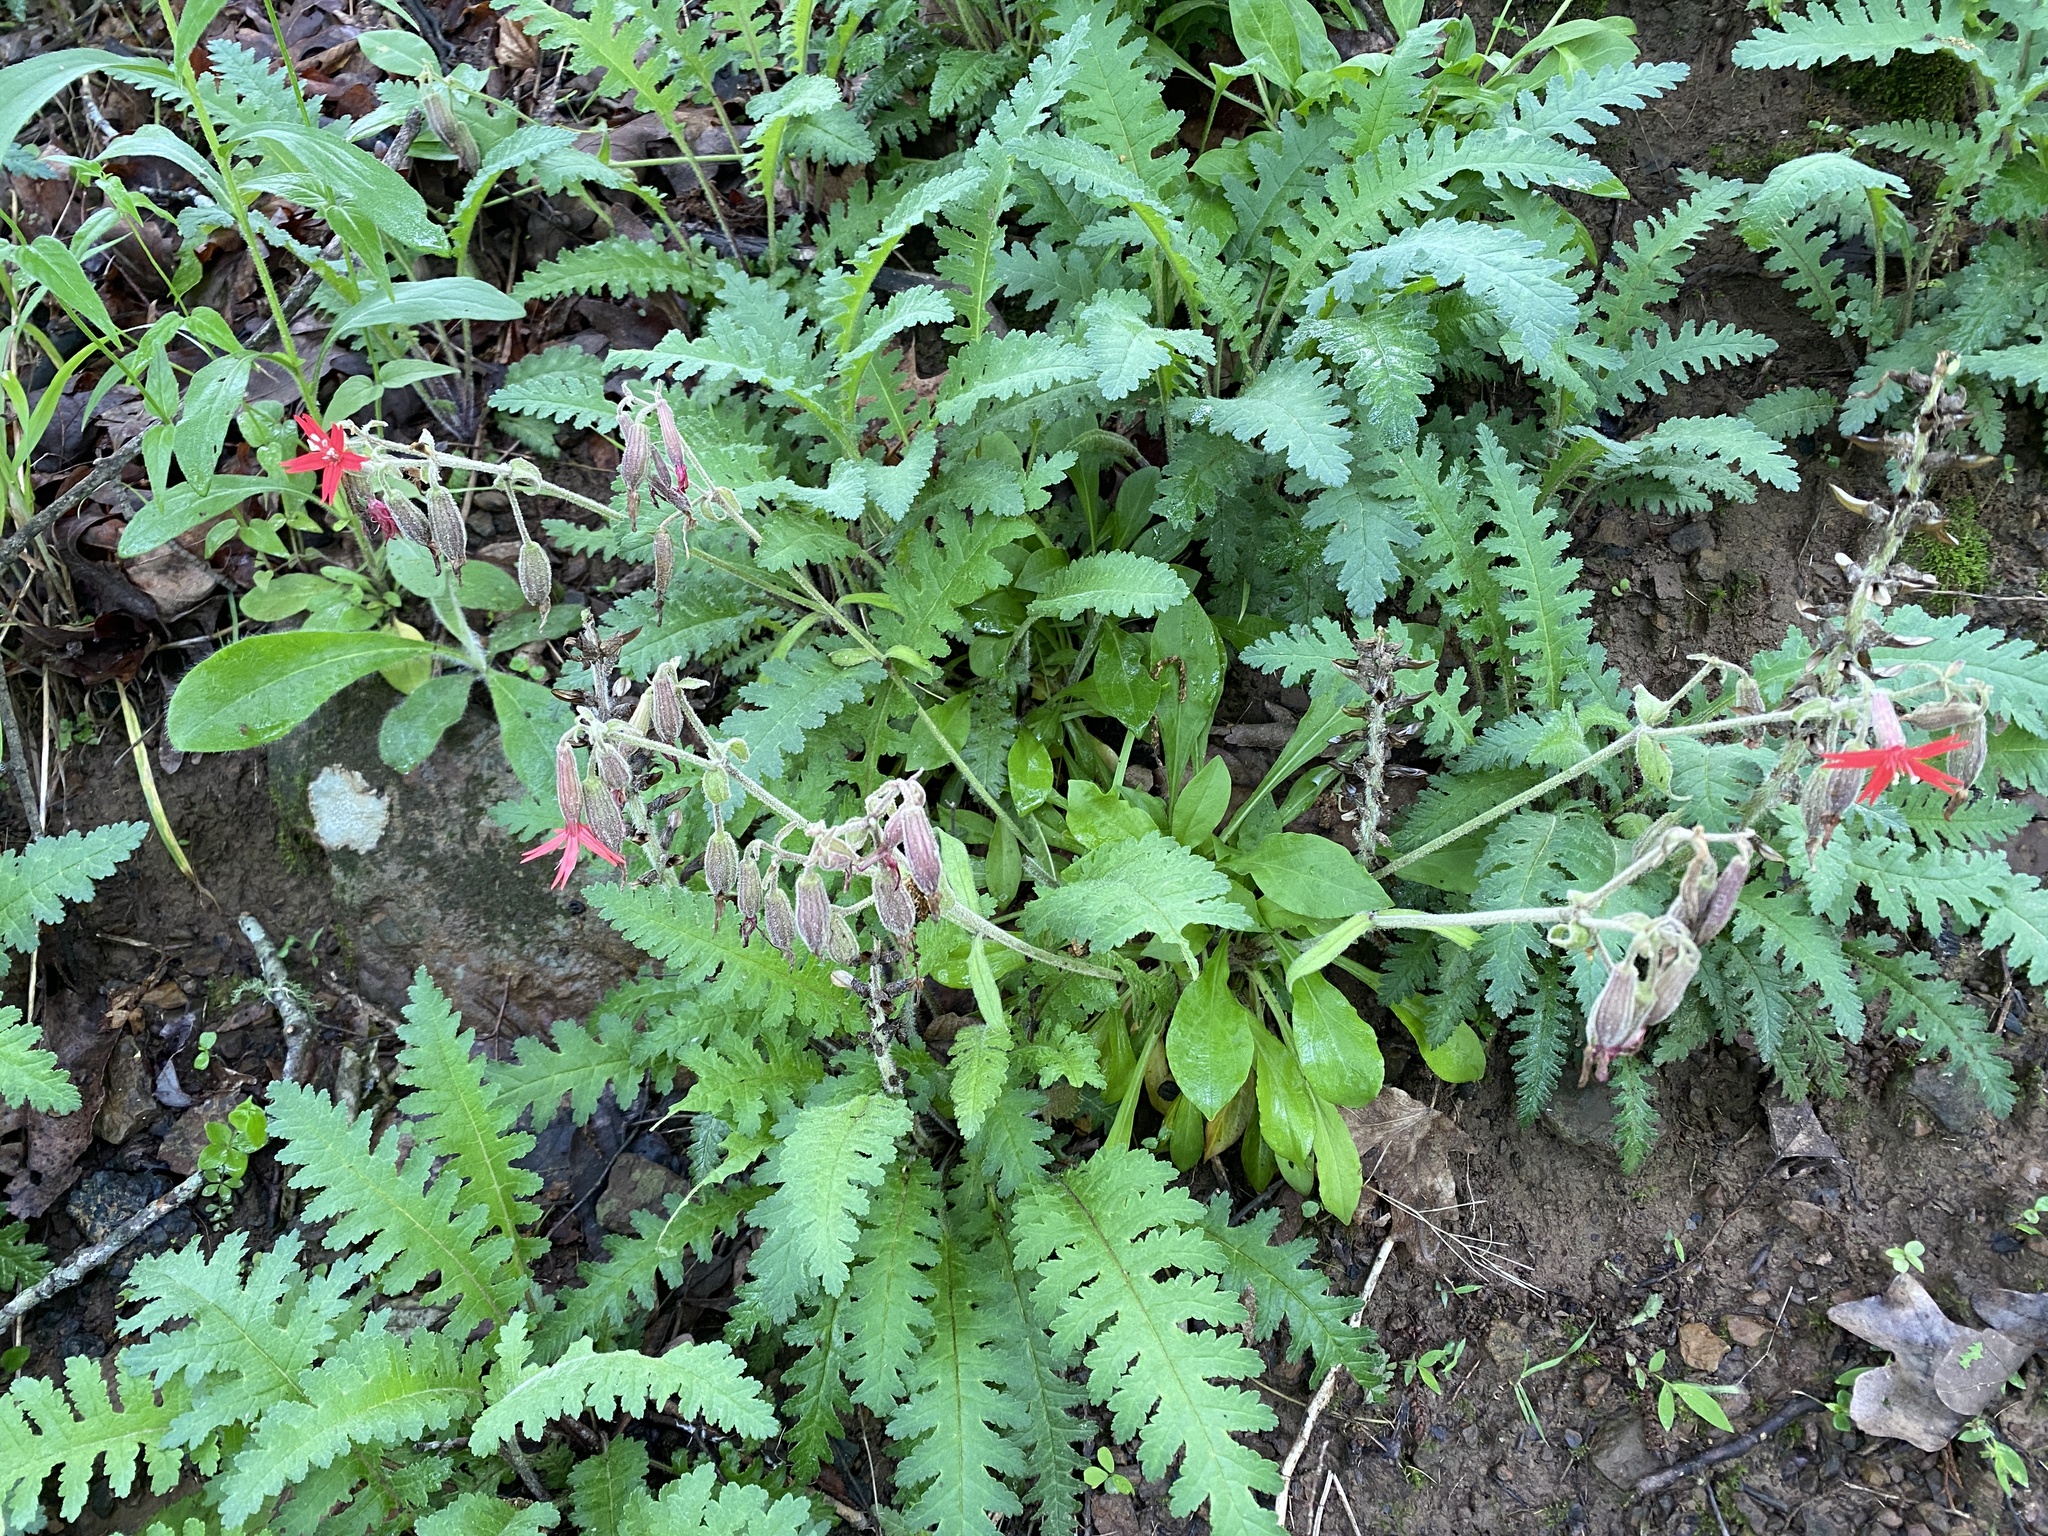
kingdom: Plantae
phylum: Tracheophyta
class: Magnoliopsida
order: Caryophyllales
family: Caryophyllaceae
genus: Silene
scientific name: Silene virginica
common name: Fire-pink
